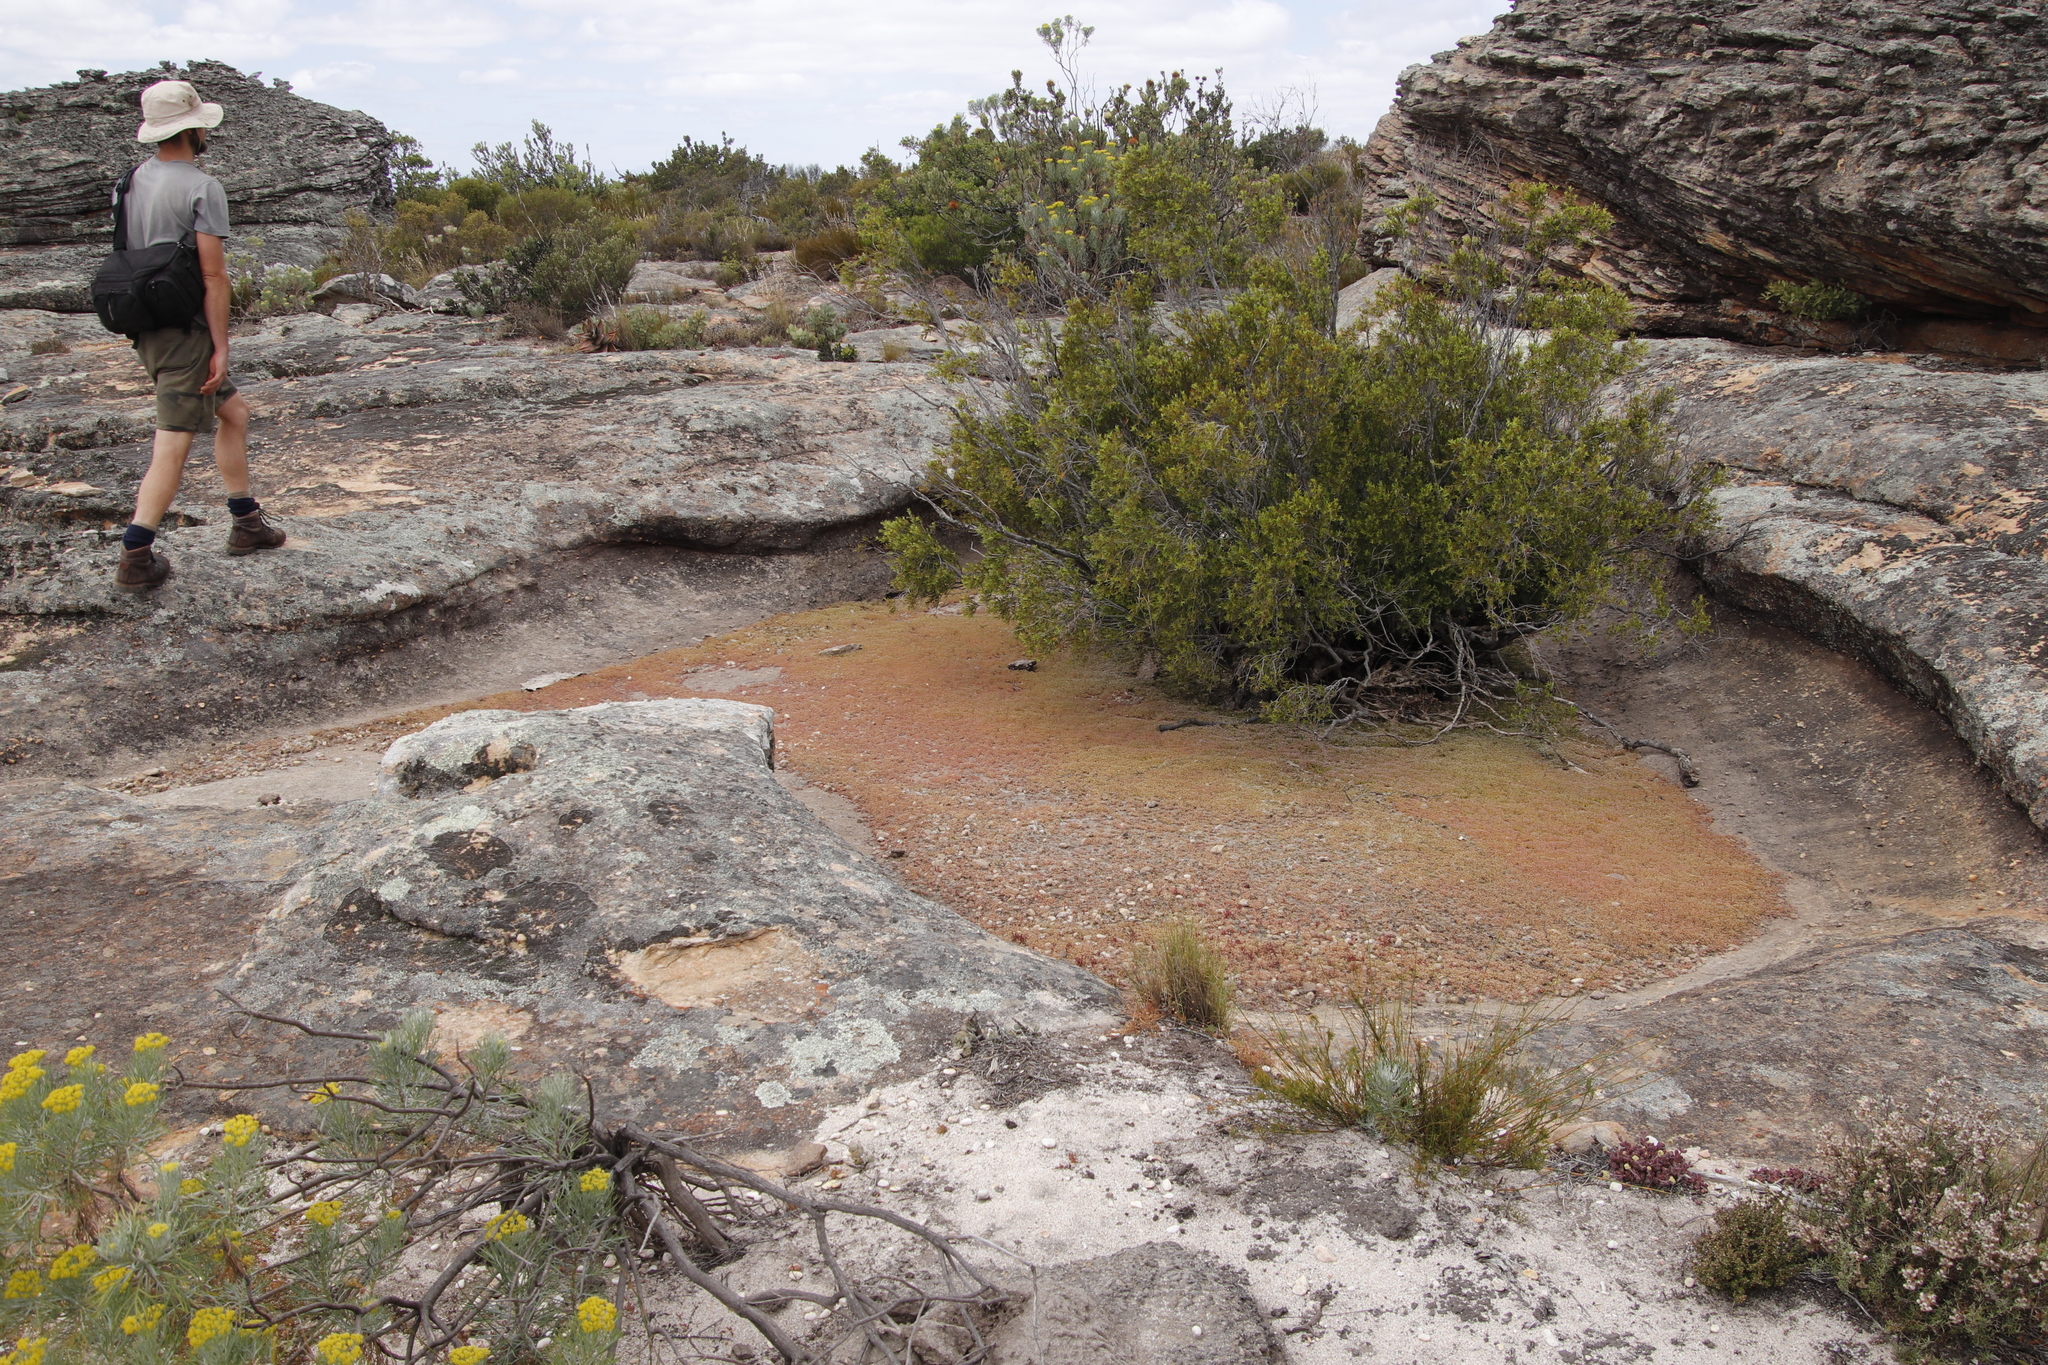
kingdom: Plantae
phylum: Tracheophyta
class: Magnoliopsida
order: Rosales
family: Rosaceae
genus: Cliffortia
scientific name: Cliffortia ruscifolia
